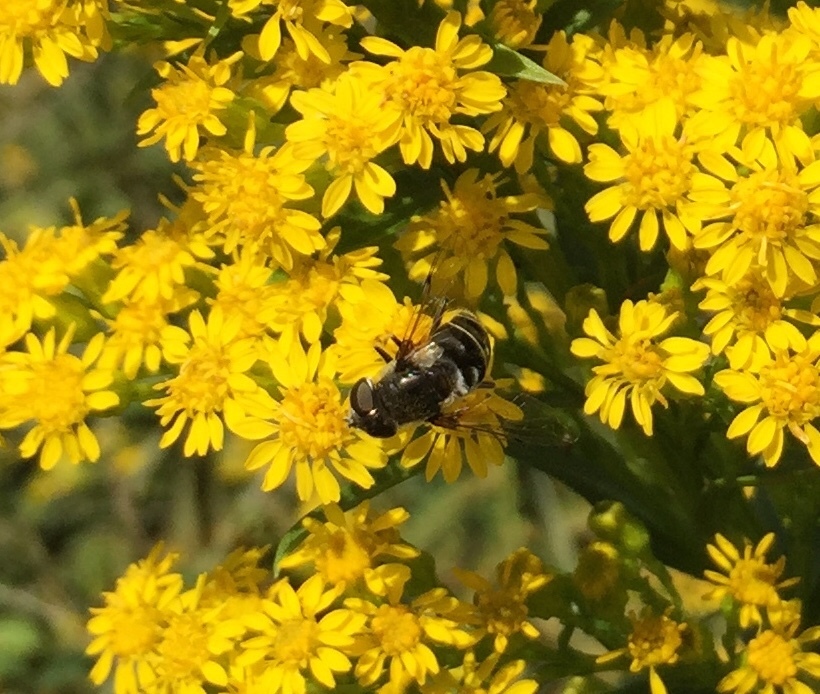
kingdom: Animalia
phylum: Arthropoda
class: Insecta
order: Diptera
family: Syrphidae
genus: Eristalis
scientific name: Eristalis dimidiata
